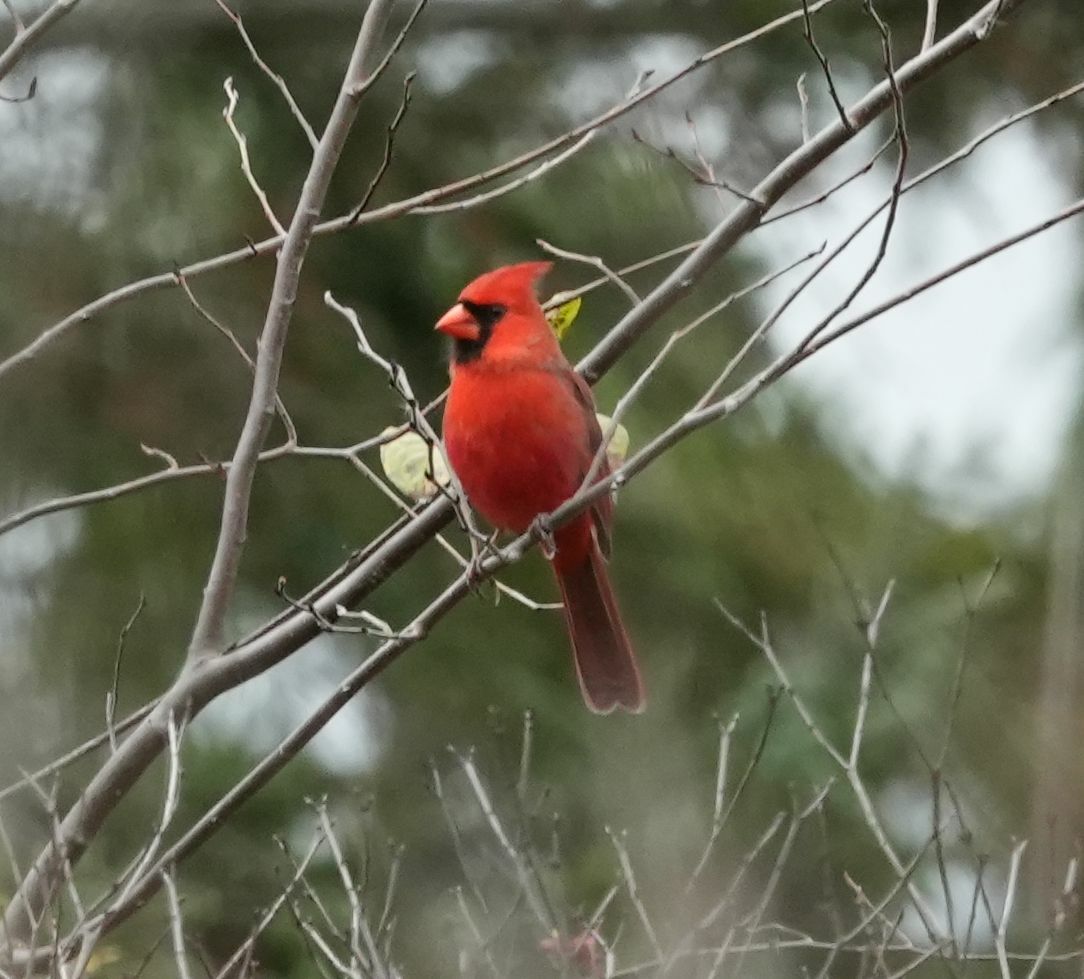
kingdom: Animalia
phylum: Chordata
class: Aves
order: Passeriformes
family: Cardinalidae
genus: Cardinalis
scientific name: Cardinalis cardinalis
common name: Northern cardinal
